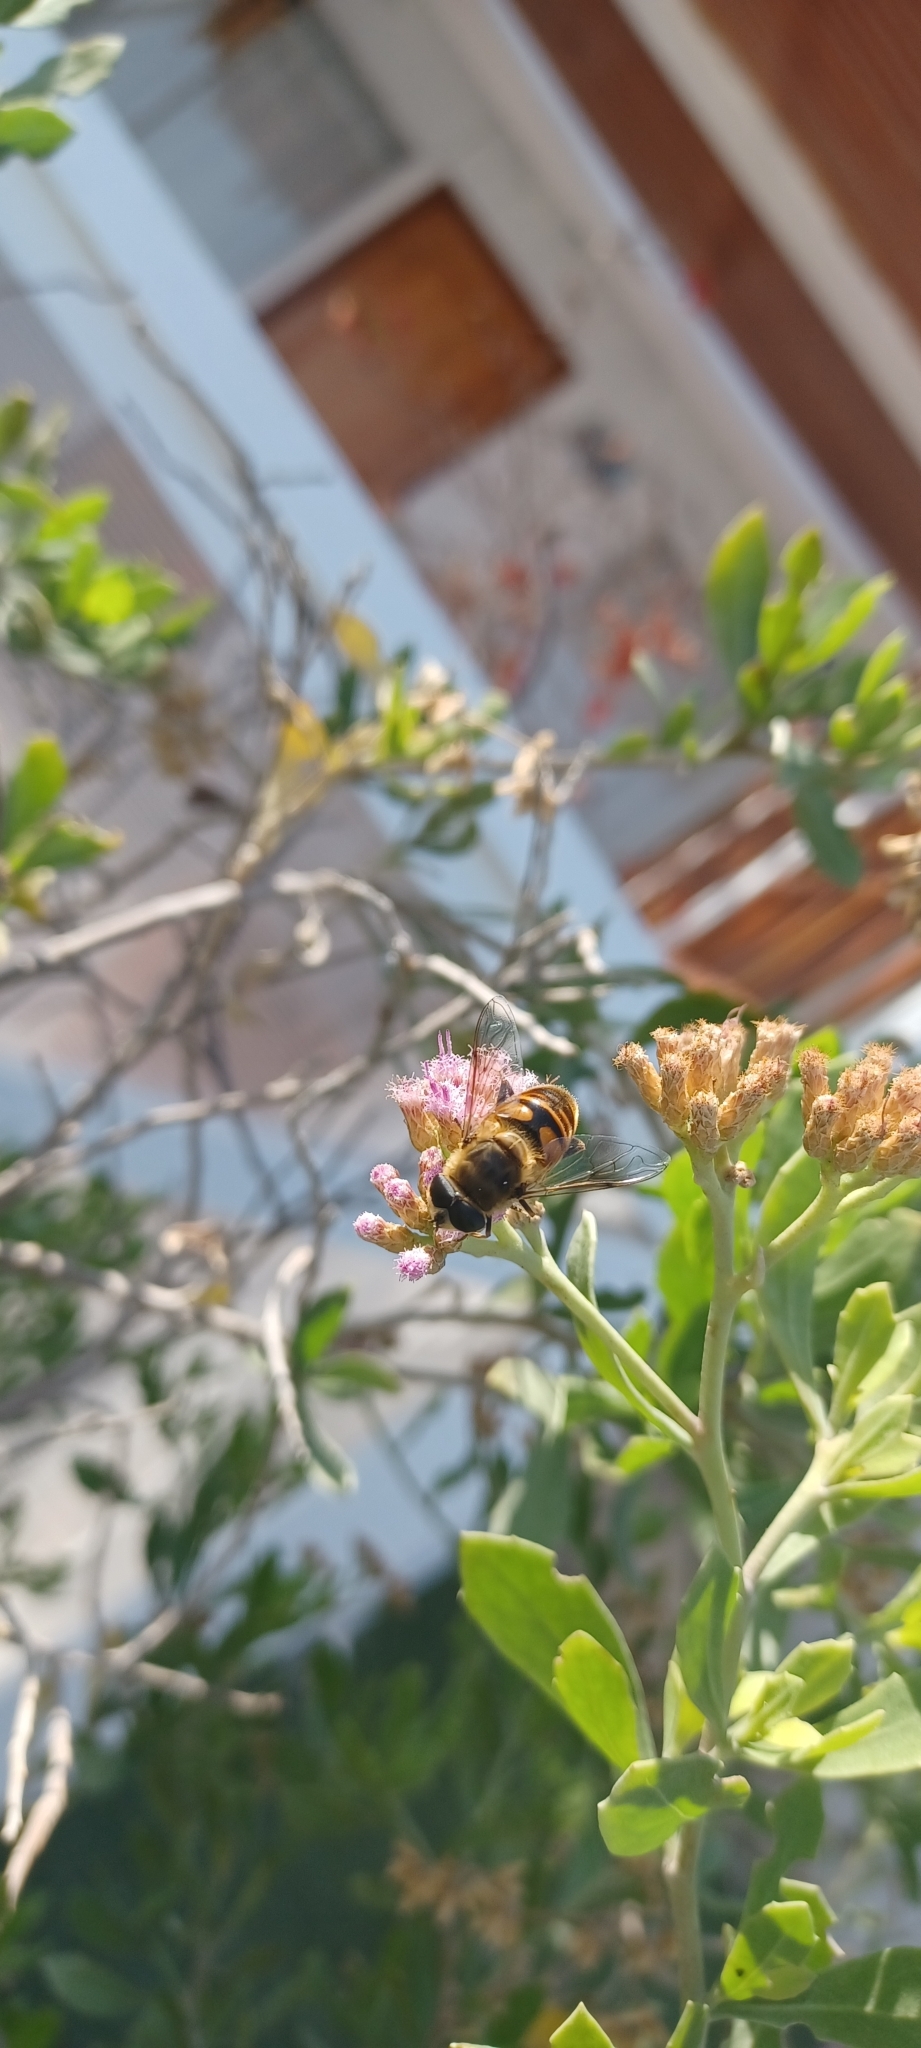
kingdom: Animalia
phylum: Arthropoda
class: Insecta
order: Diptera
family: Syrphidae
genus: Eristalis
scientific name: Eristalis tenax
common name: Drone fly
